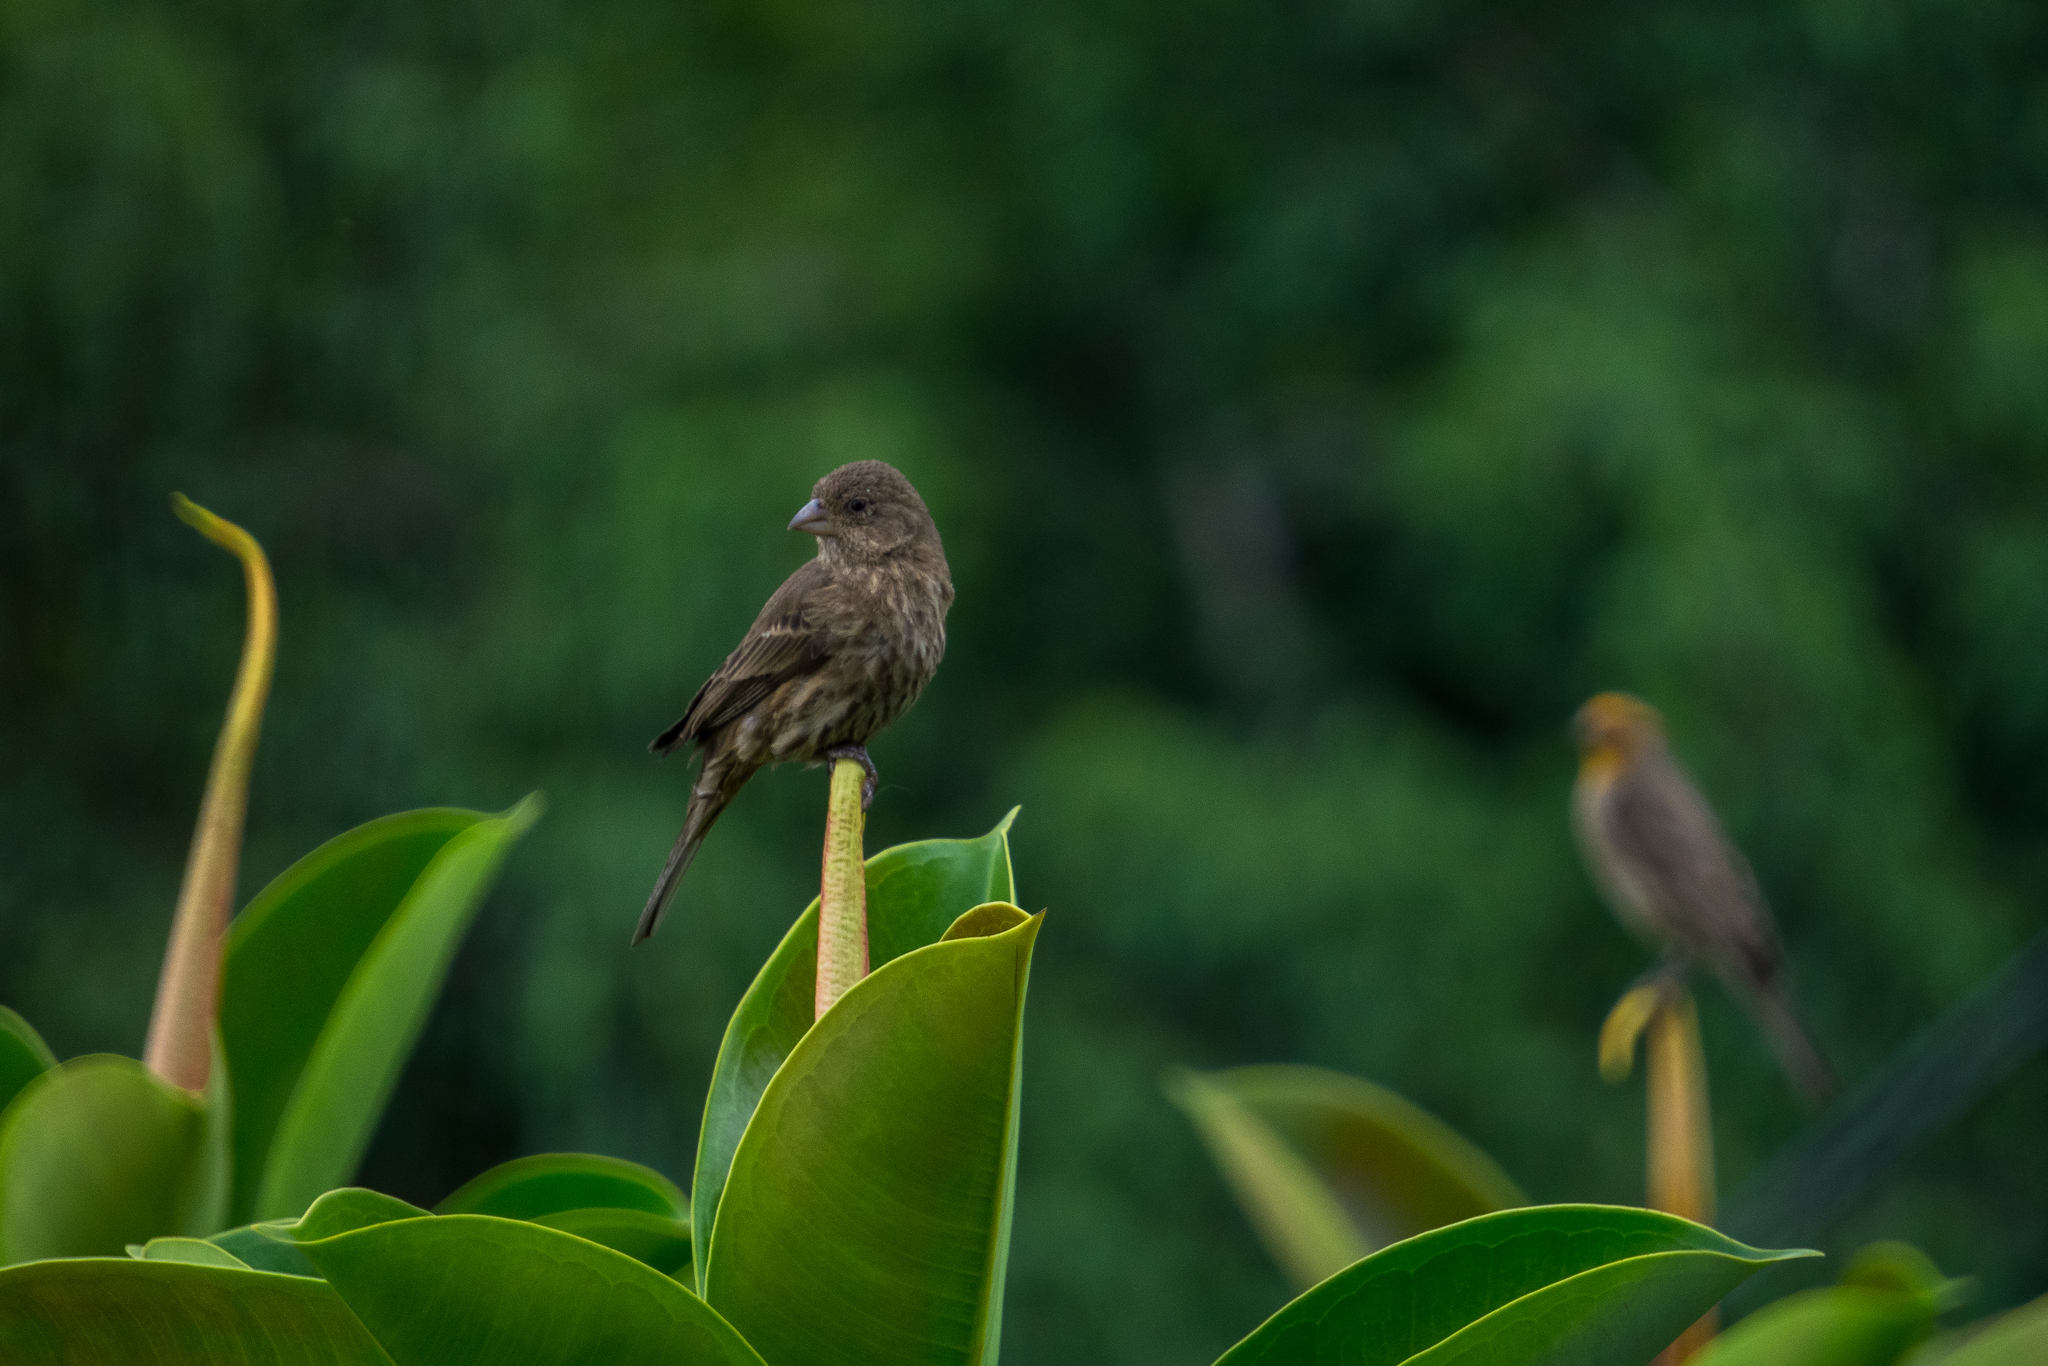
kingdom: Animalia
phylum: Chordata
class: Aves
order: Passeriformes
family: Fringillidae
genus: Haemorhous
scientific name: Haemorhous mexicanus
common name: House finch
